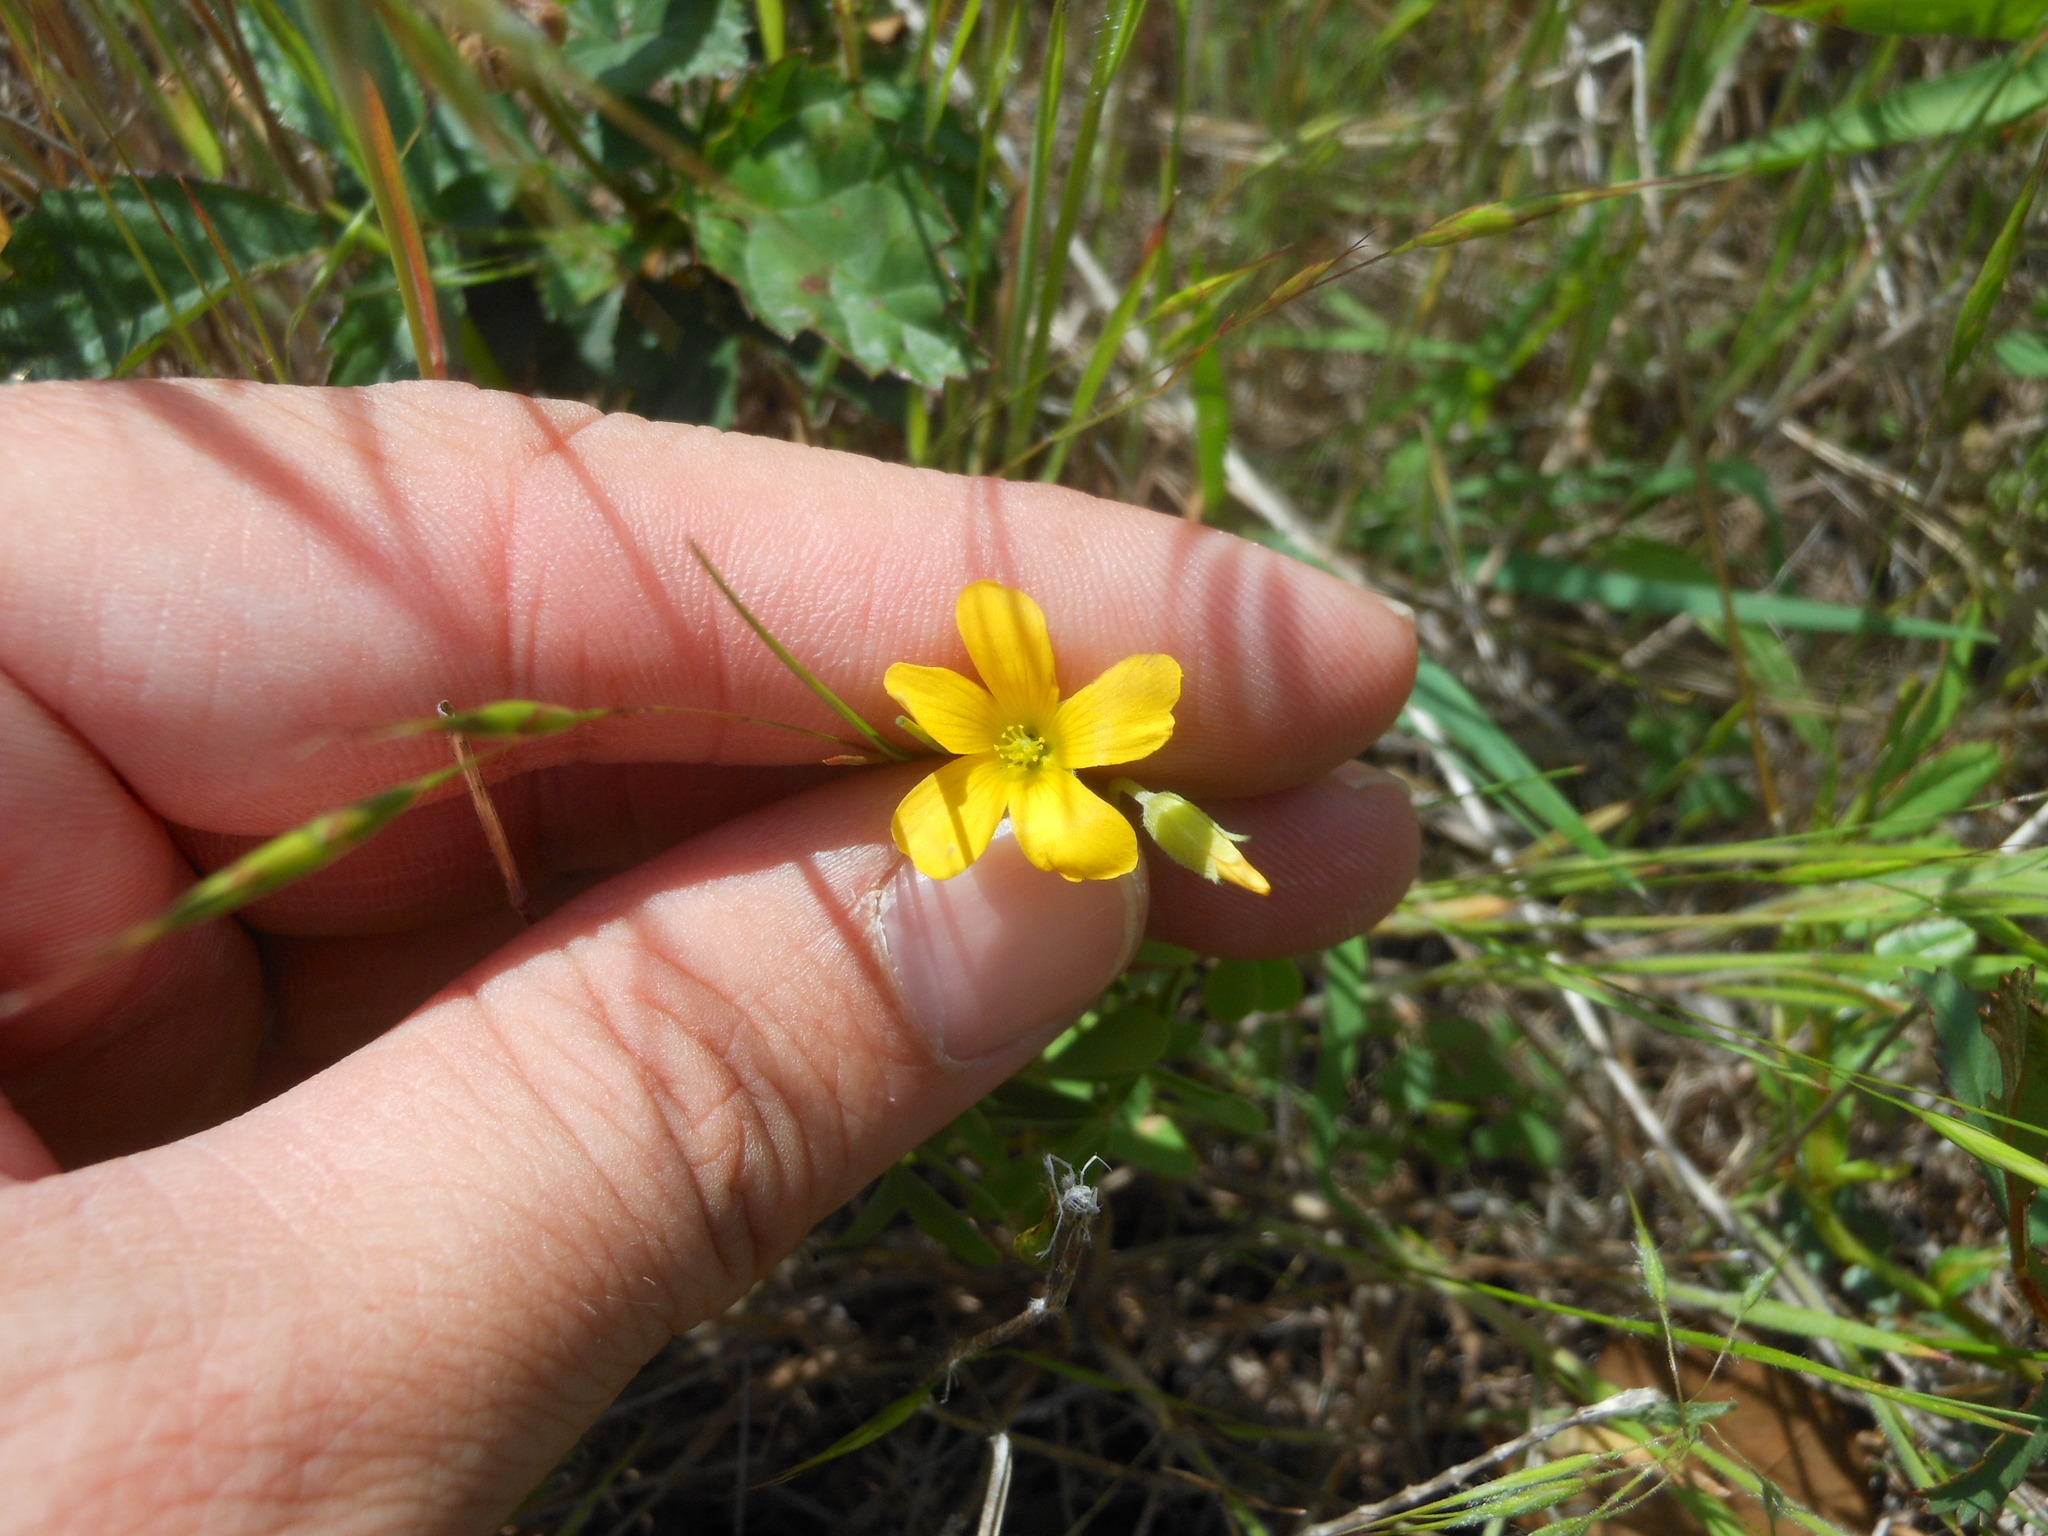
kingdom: Plantae
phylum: Tracheophyta
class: Magnoliopsida
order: Oxalidales
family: Oxalidaceae
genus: Oxalis
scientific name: Oxalis dillenii
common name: Sussex yellow-sorrel
